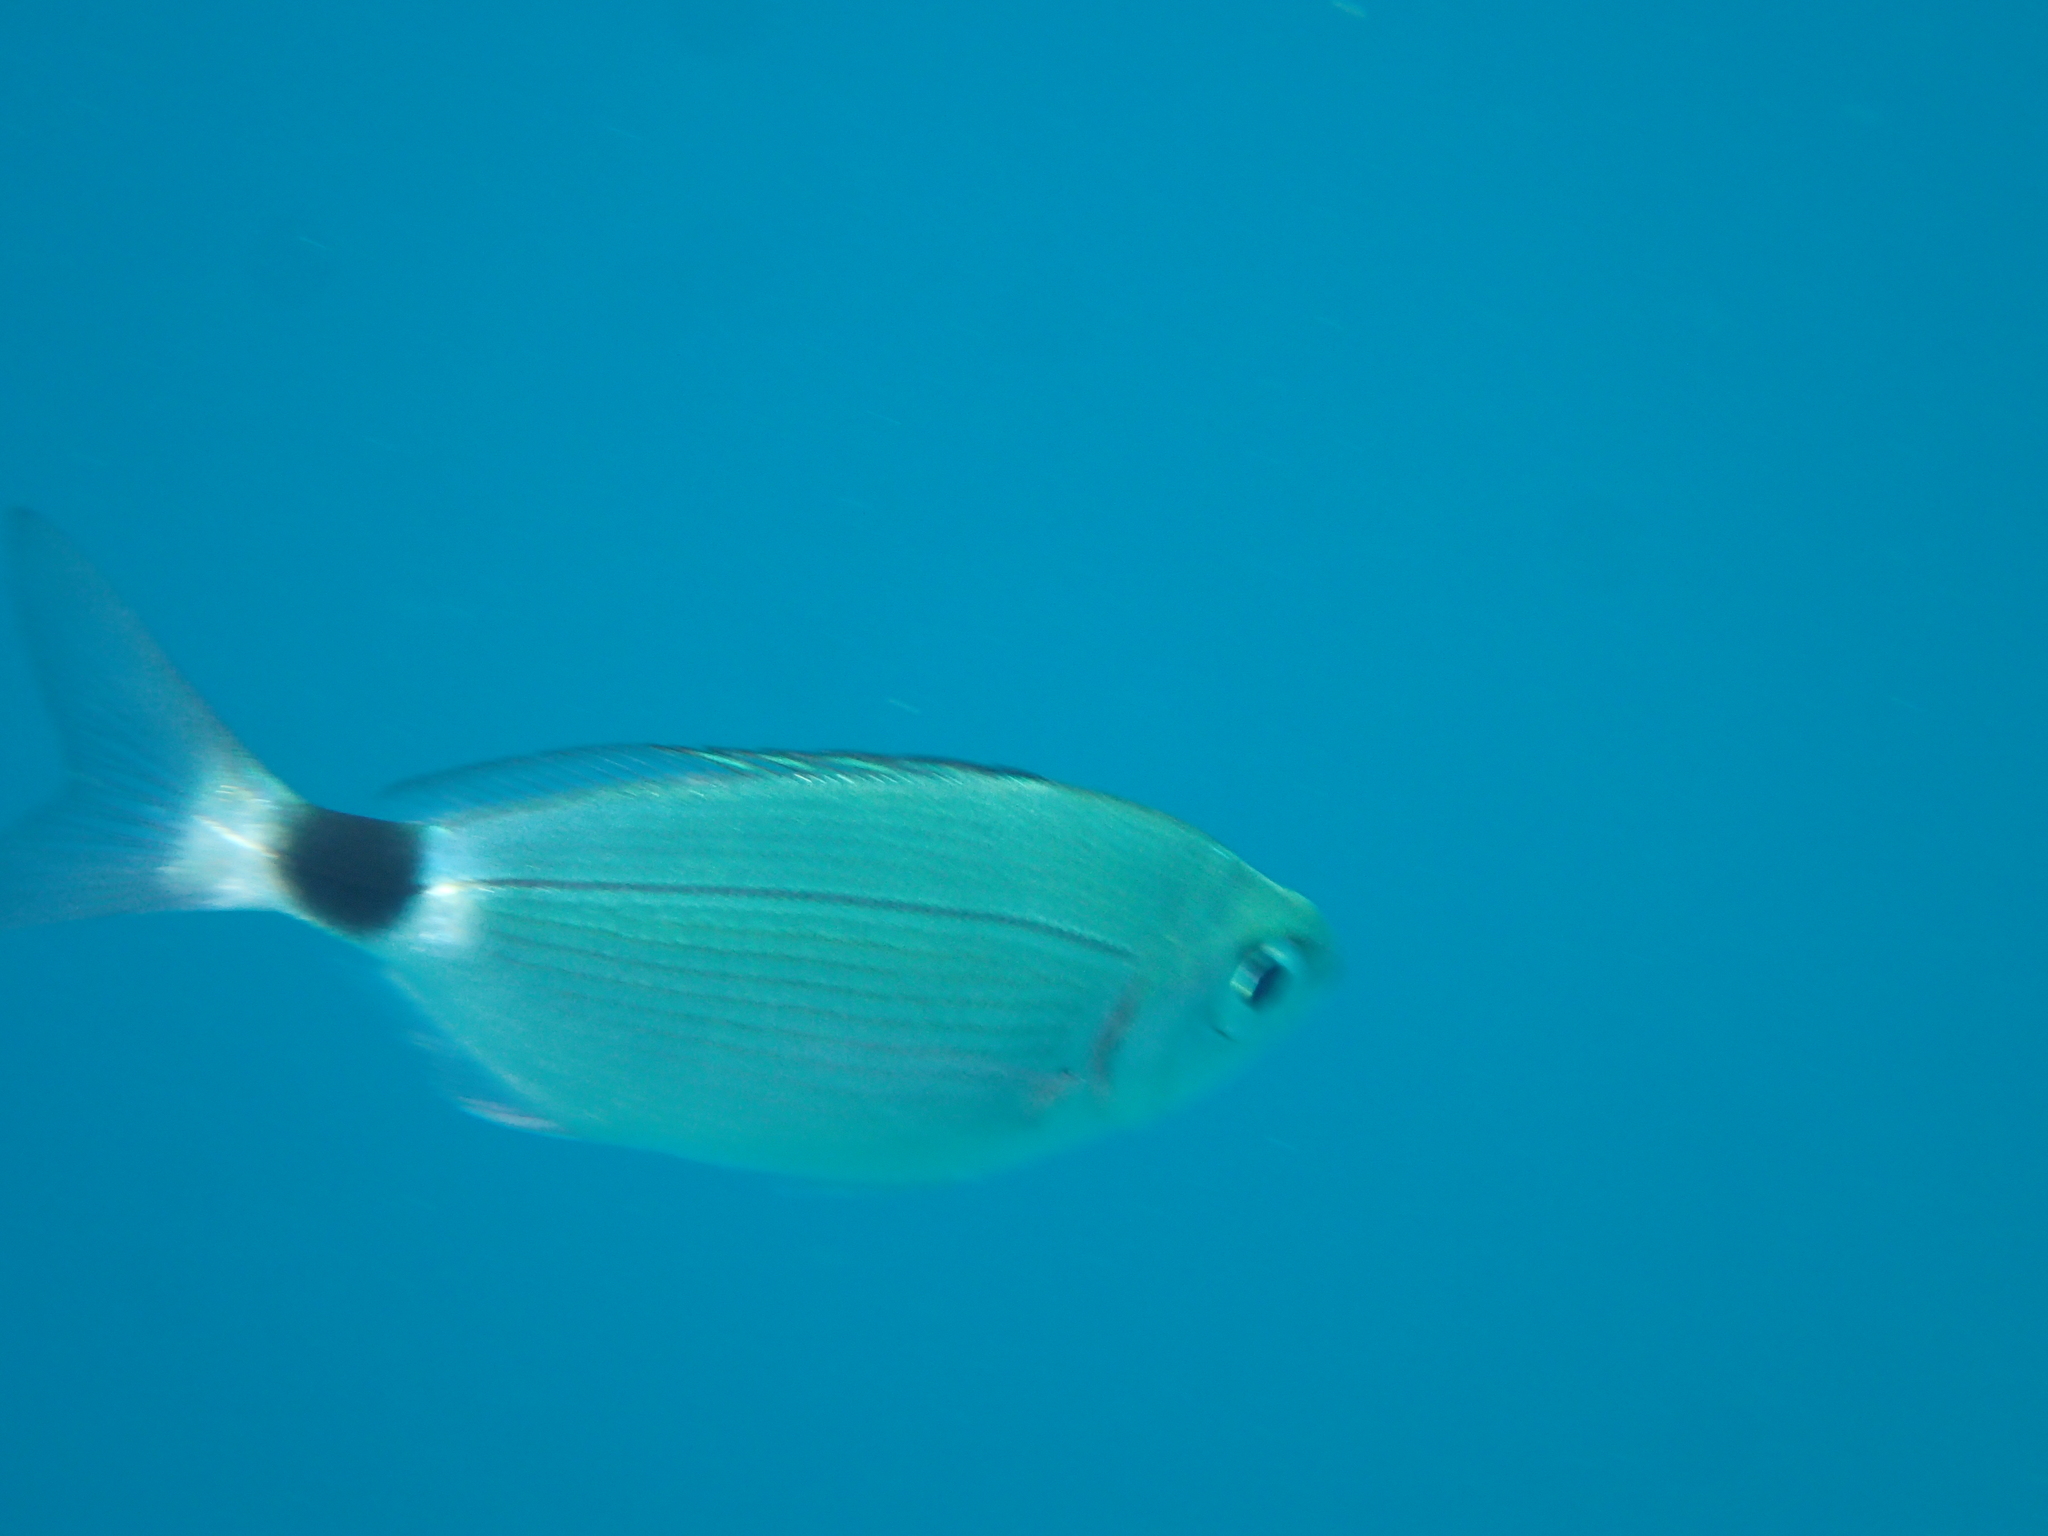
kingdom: Animalia
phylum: Chordata
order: Perciformes
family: Sparidae
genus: Oblada
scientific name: Oblada melanura
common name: Saddled seabream
